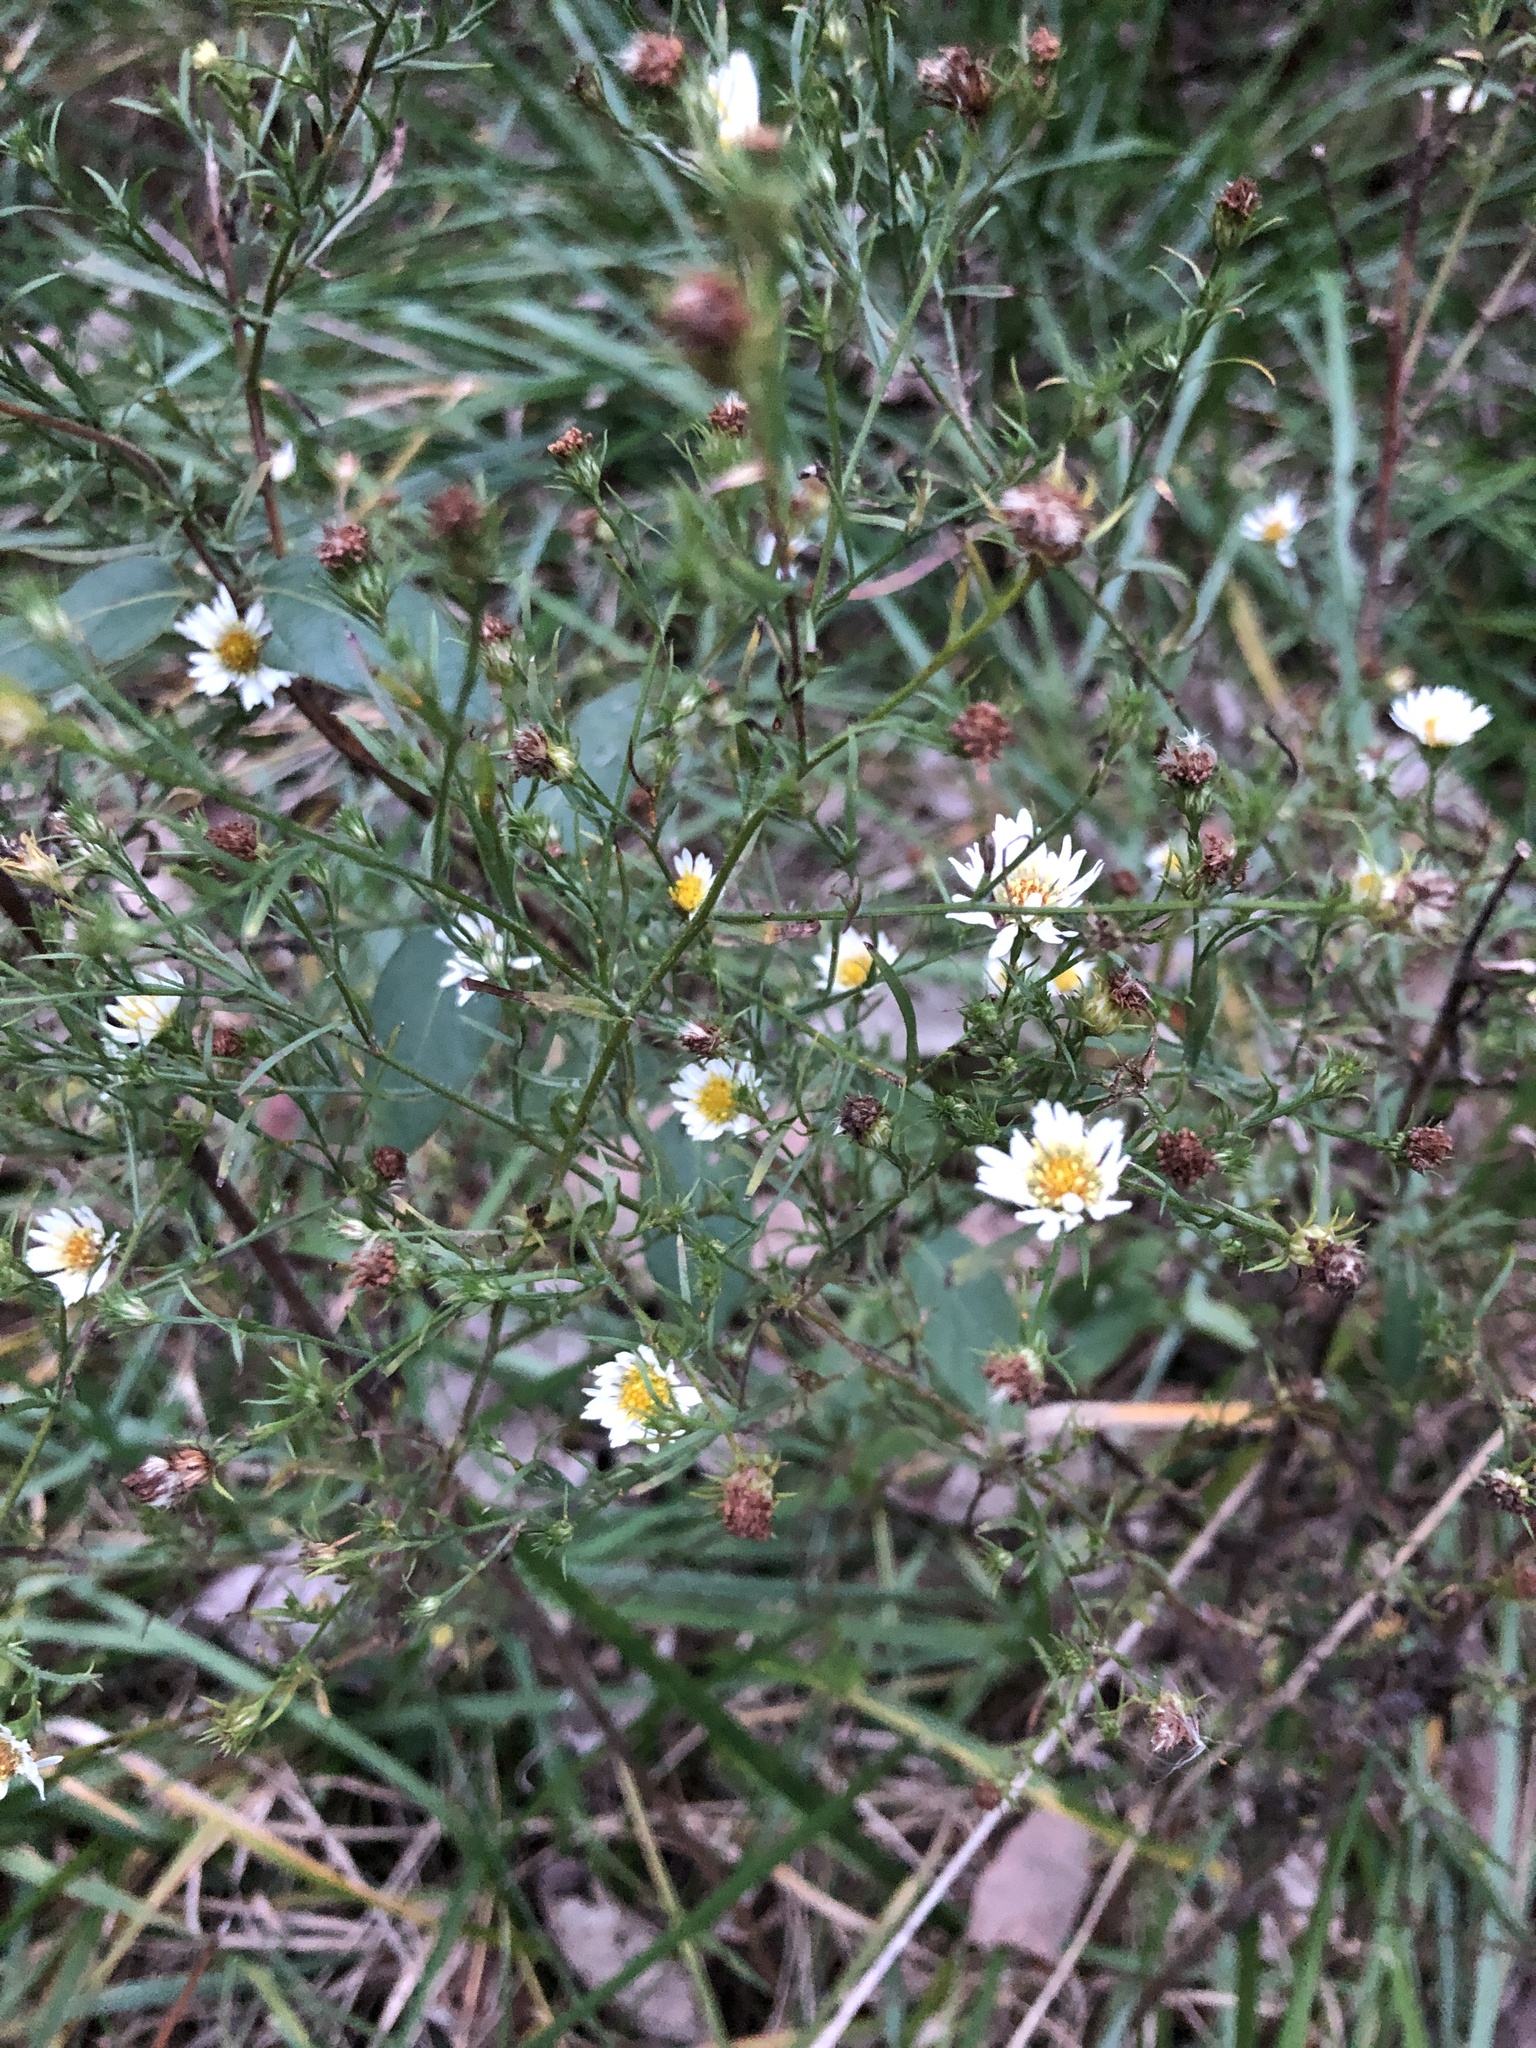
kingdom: Plantae
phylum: Tracheophyta
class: Magnoliopsida
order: Asterales
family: Asteraceae
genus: Symphyotrichum
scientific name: Symphyotrichum pilosum
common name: Awl aster
